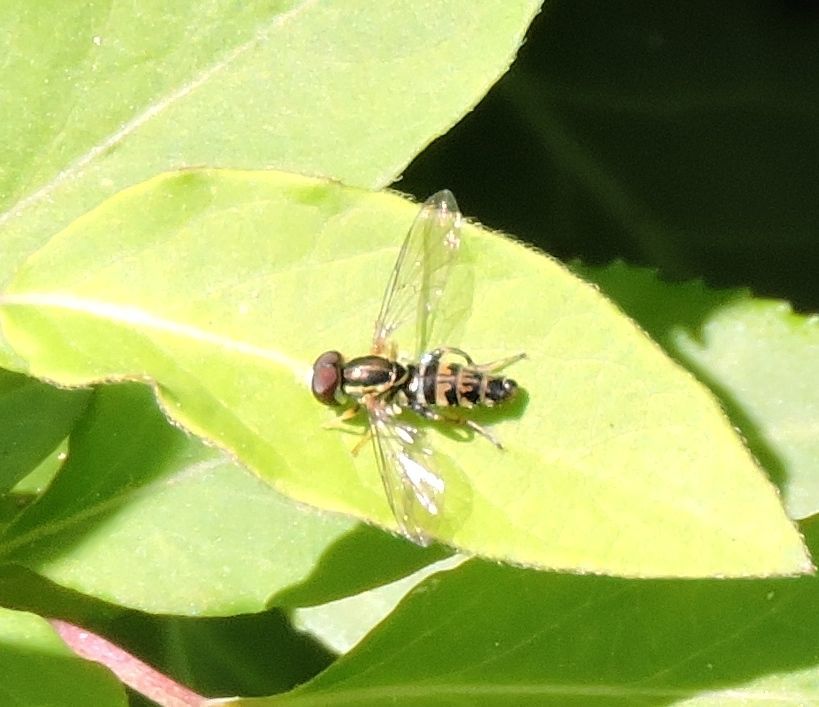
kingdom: Animalia
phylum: Arthropoda
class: Insecta
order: Diptera
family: Syrphidae
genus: Toxomerus
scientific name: Toxomerus geminatus
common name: Eastern calligrapher
